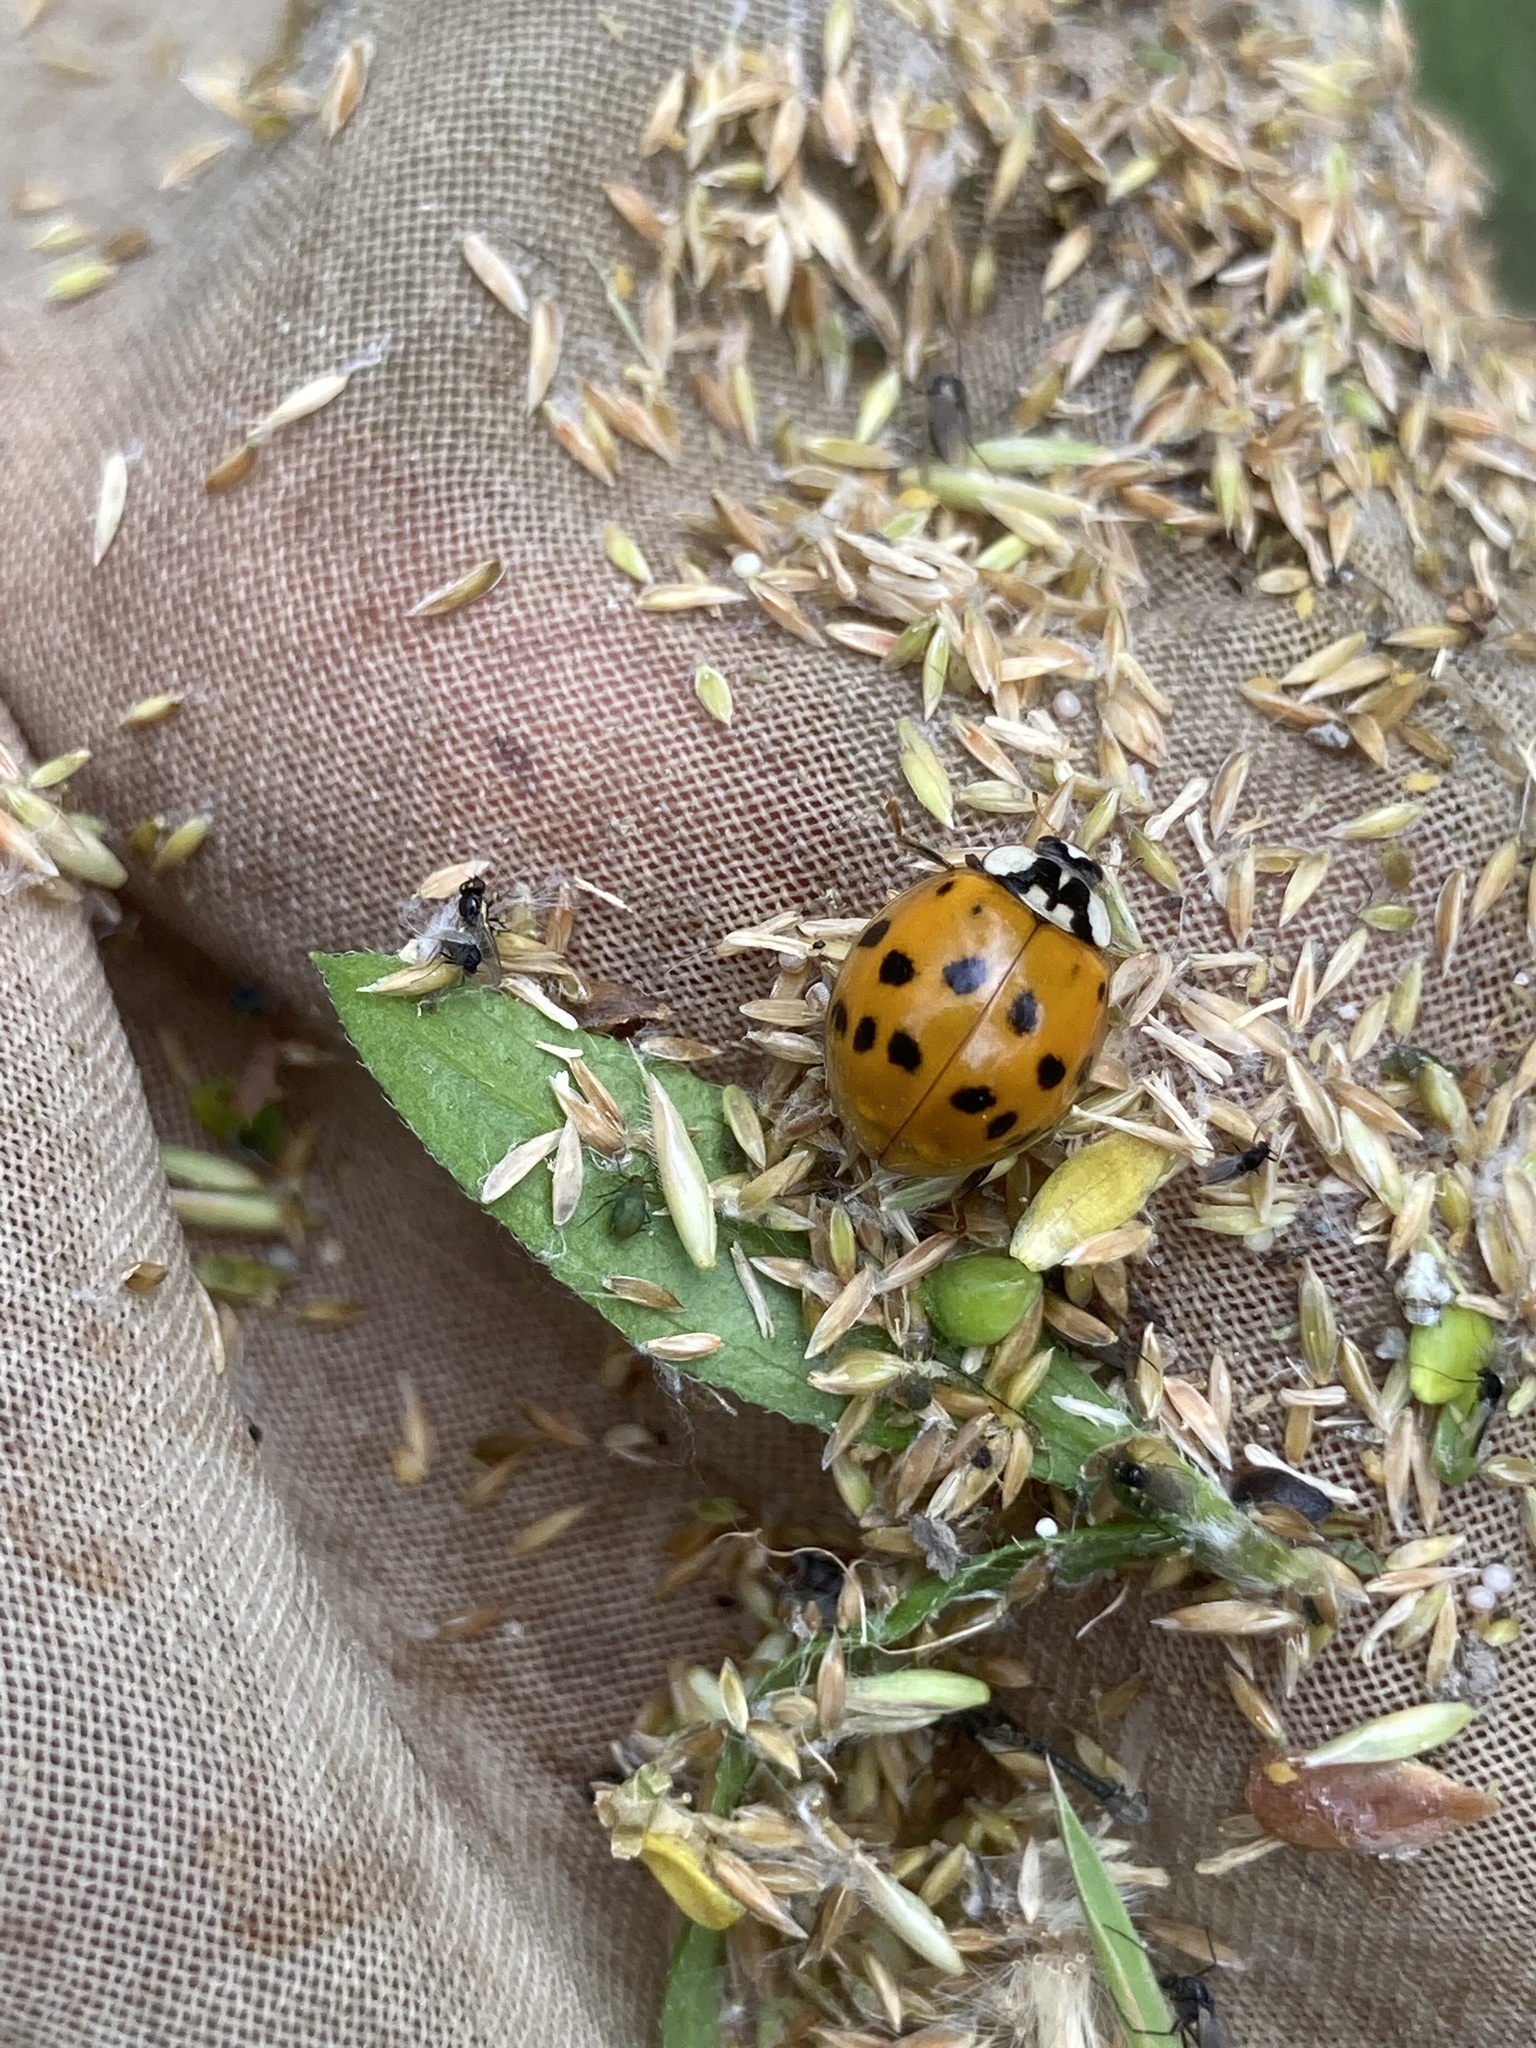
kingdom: Animalia
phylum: Arthropoda
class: Insecta
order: Coleoptera
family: Coccinellidae
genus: Harmonia
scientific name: Harmonia axyridis
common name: Harlequin ladybird
